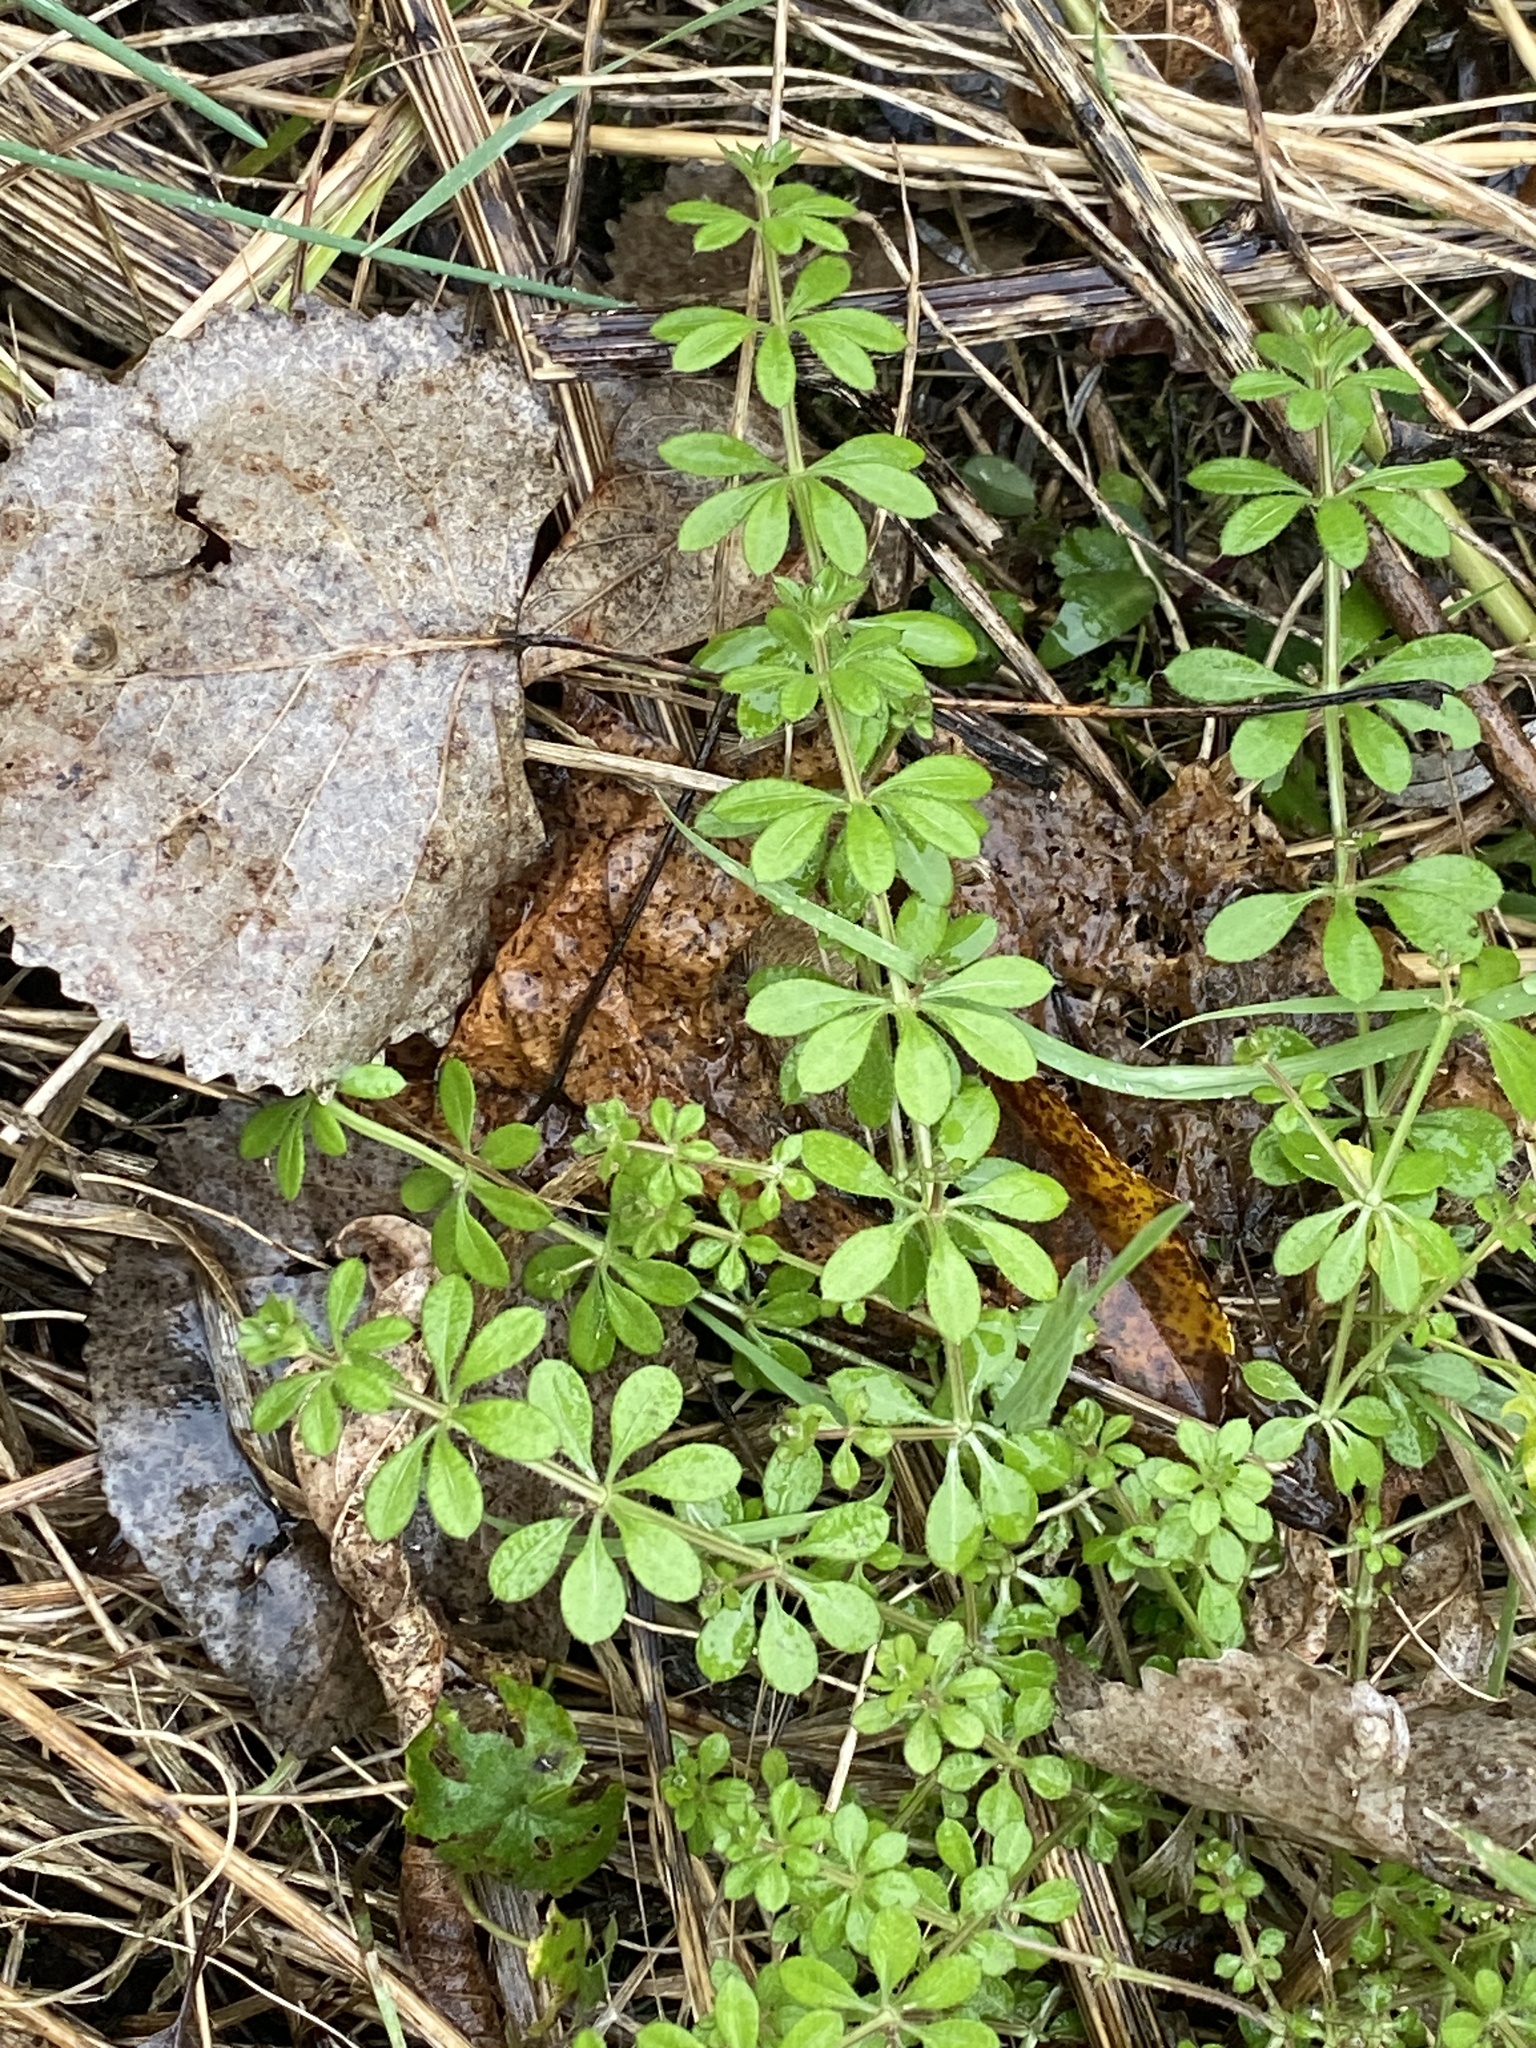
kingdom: Plantae
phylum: Tracheophyta
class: Magnoliopsida
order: Gentianales
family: Rubiaceae
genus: Galium
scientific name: Galium aparine
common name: Cleavers
